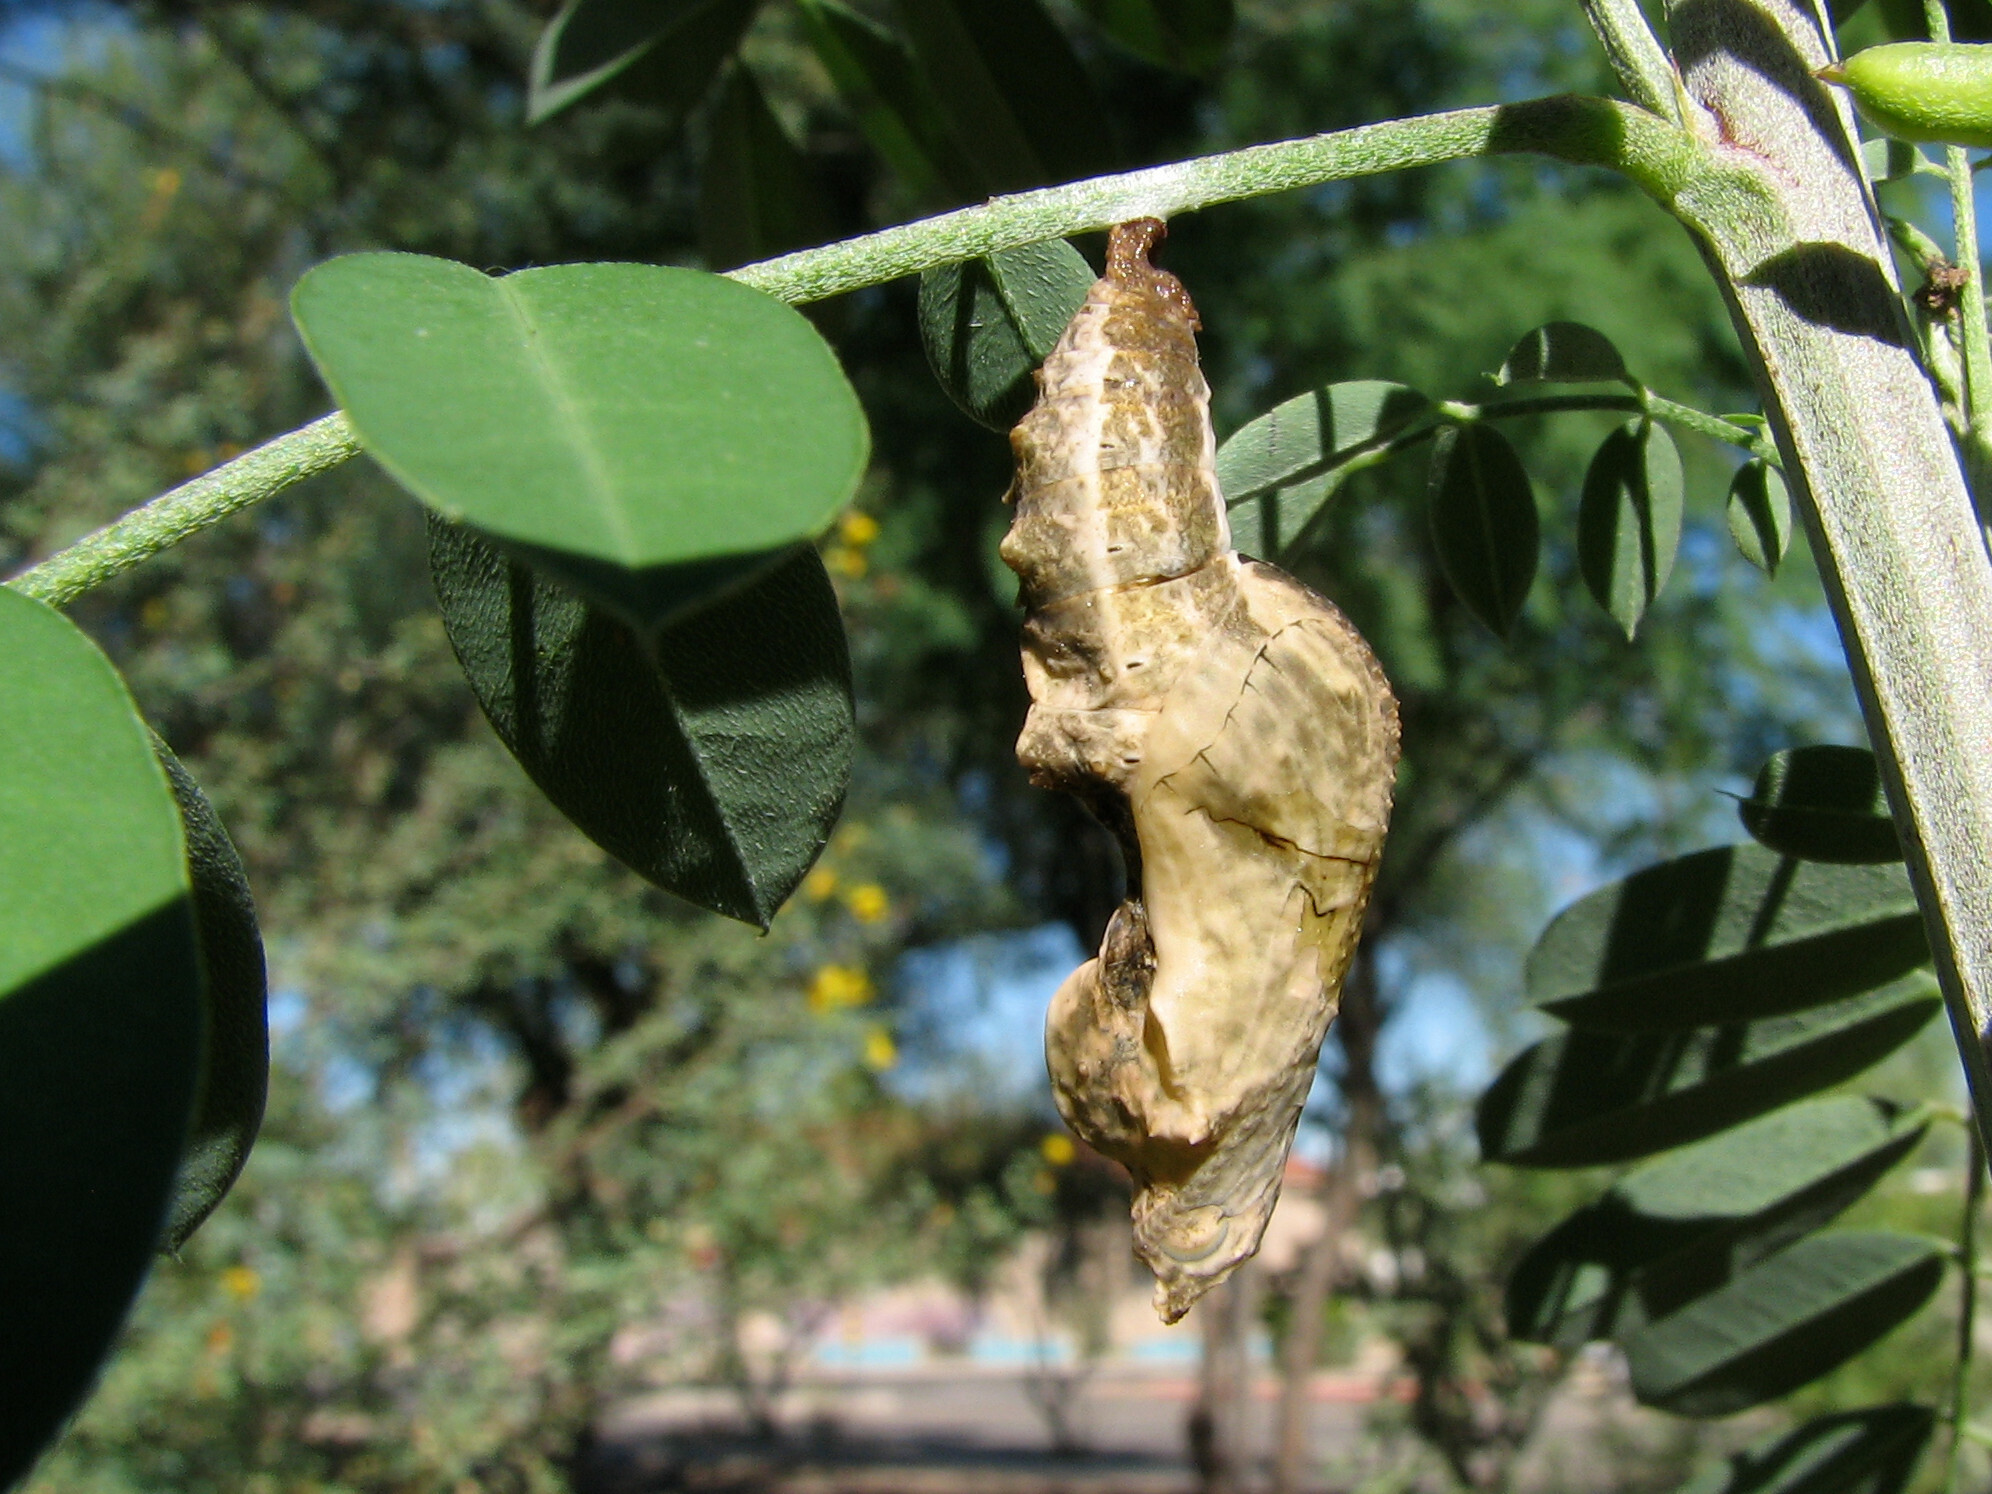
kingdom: Animalia
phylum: Arthropoda
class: Insecta
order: Lepidoptera
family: Nymphalidae
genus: Dione
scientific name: Dione vanillae
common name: Gulf fritillary
